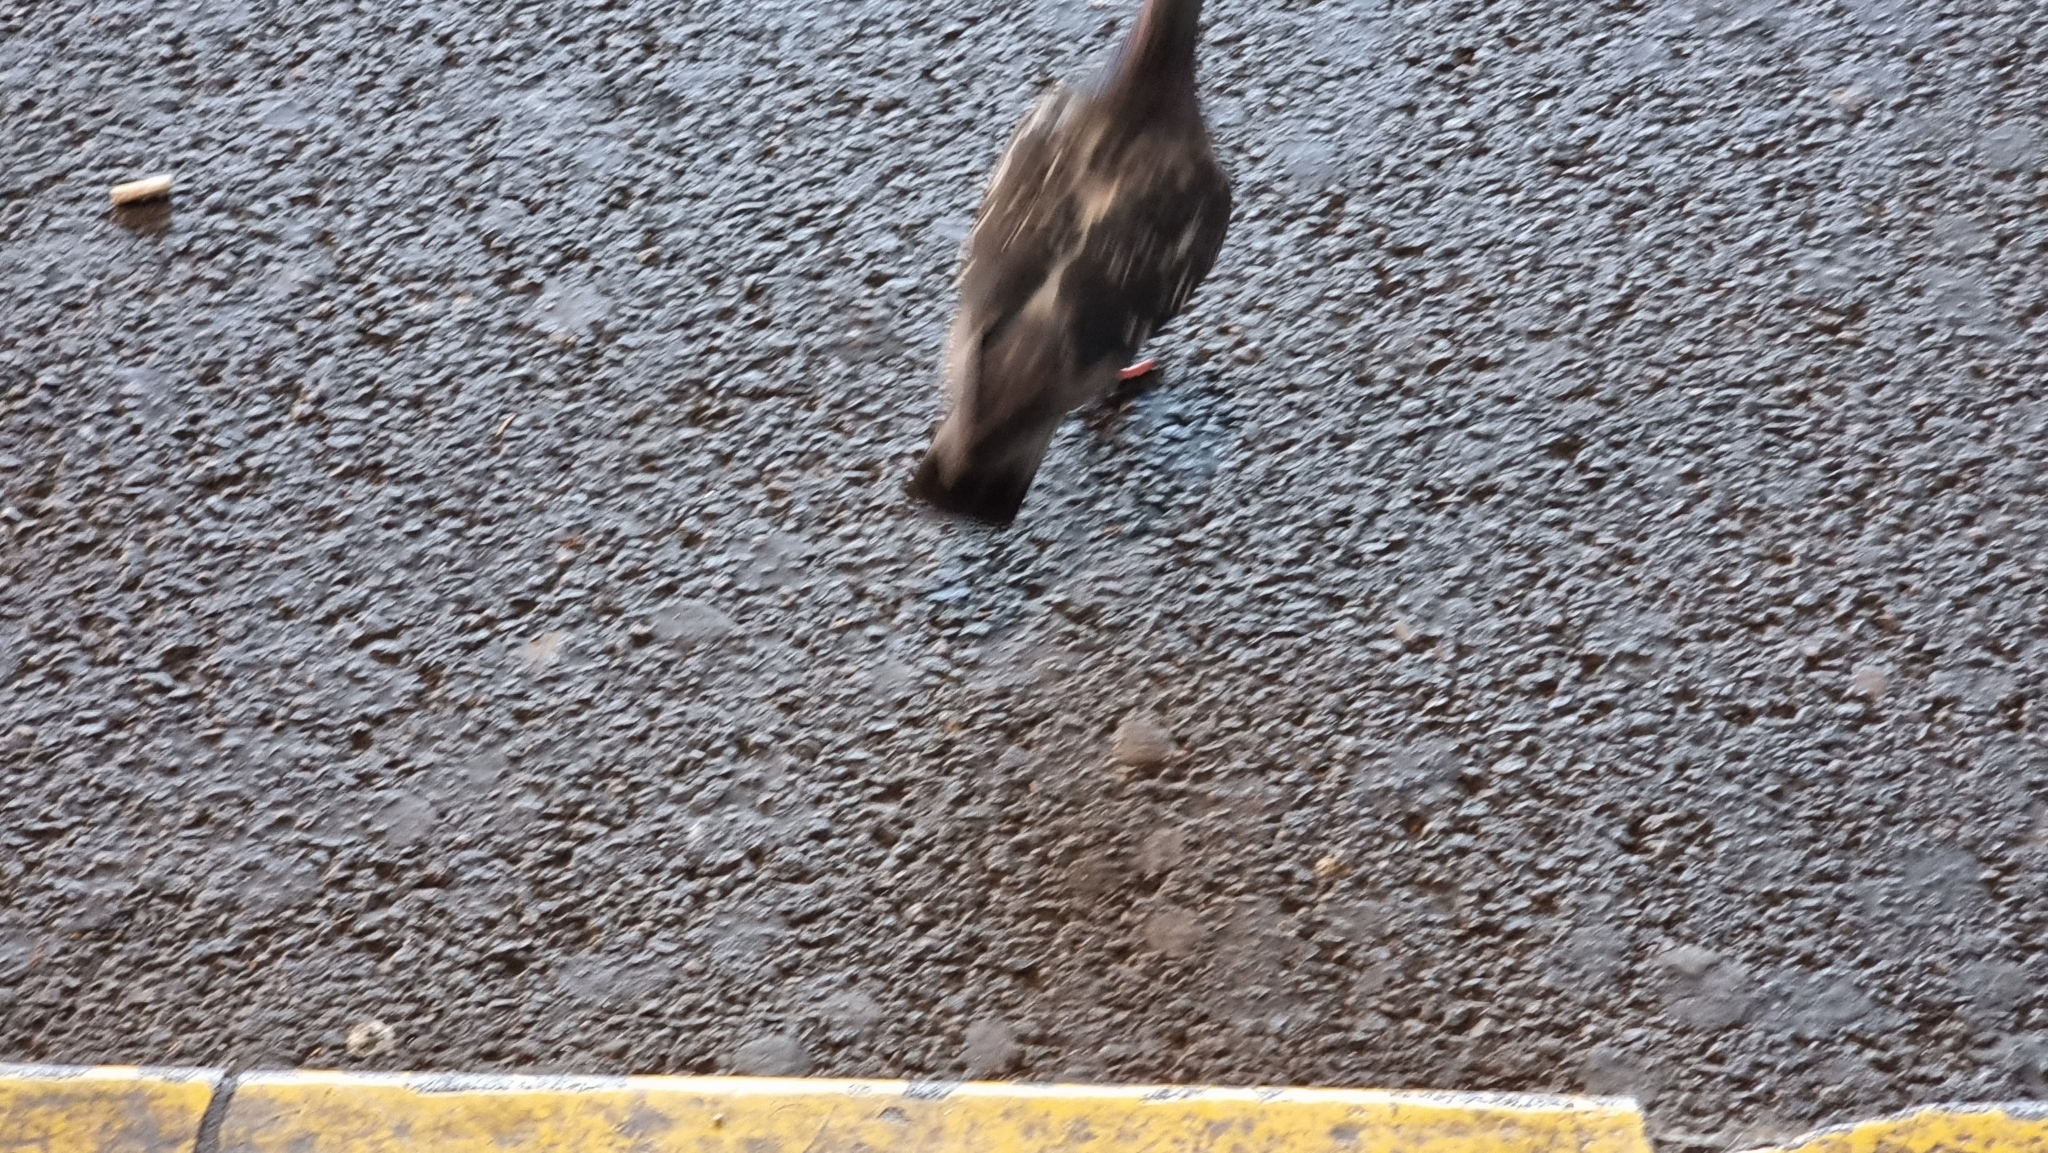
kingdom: Animalia
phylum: Chordata
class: Aves
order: Columbiformes
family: Columbidae
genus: Columba
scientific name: Columba livia
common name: Rock pigeon
